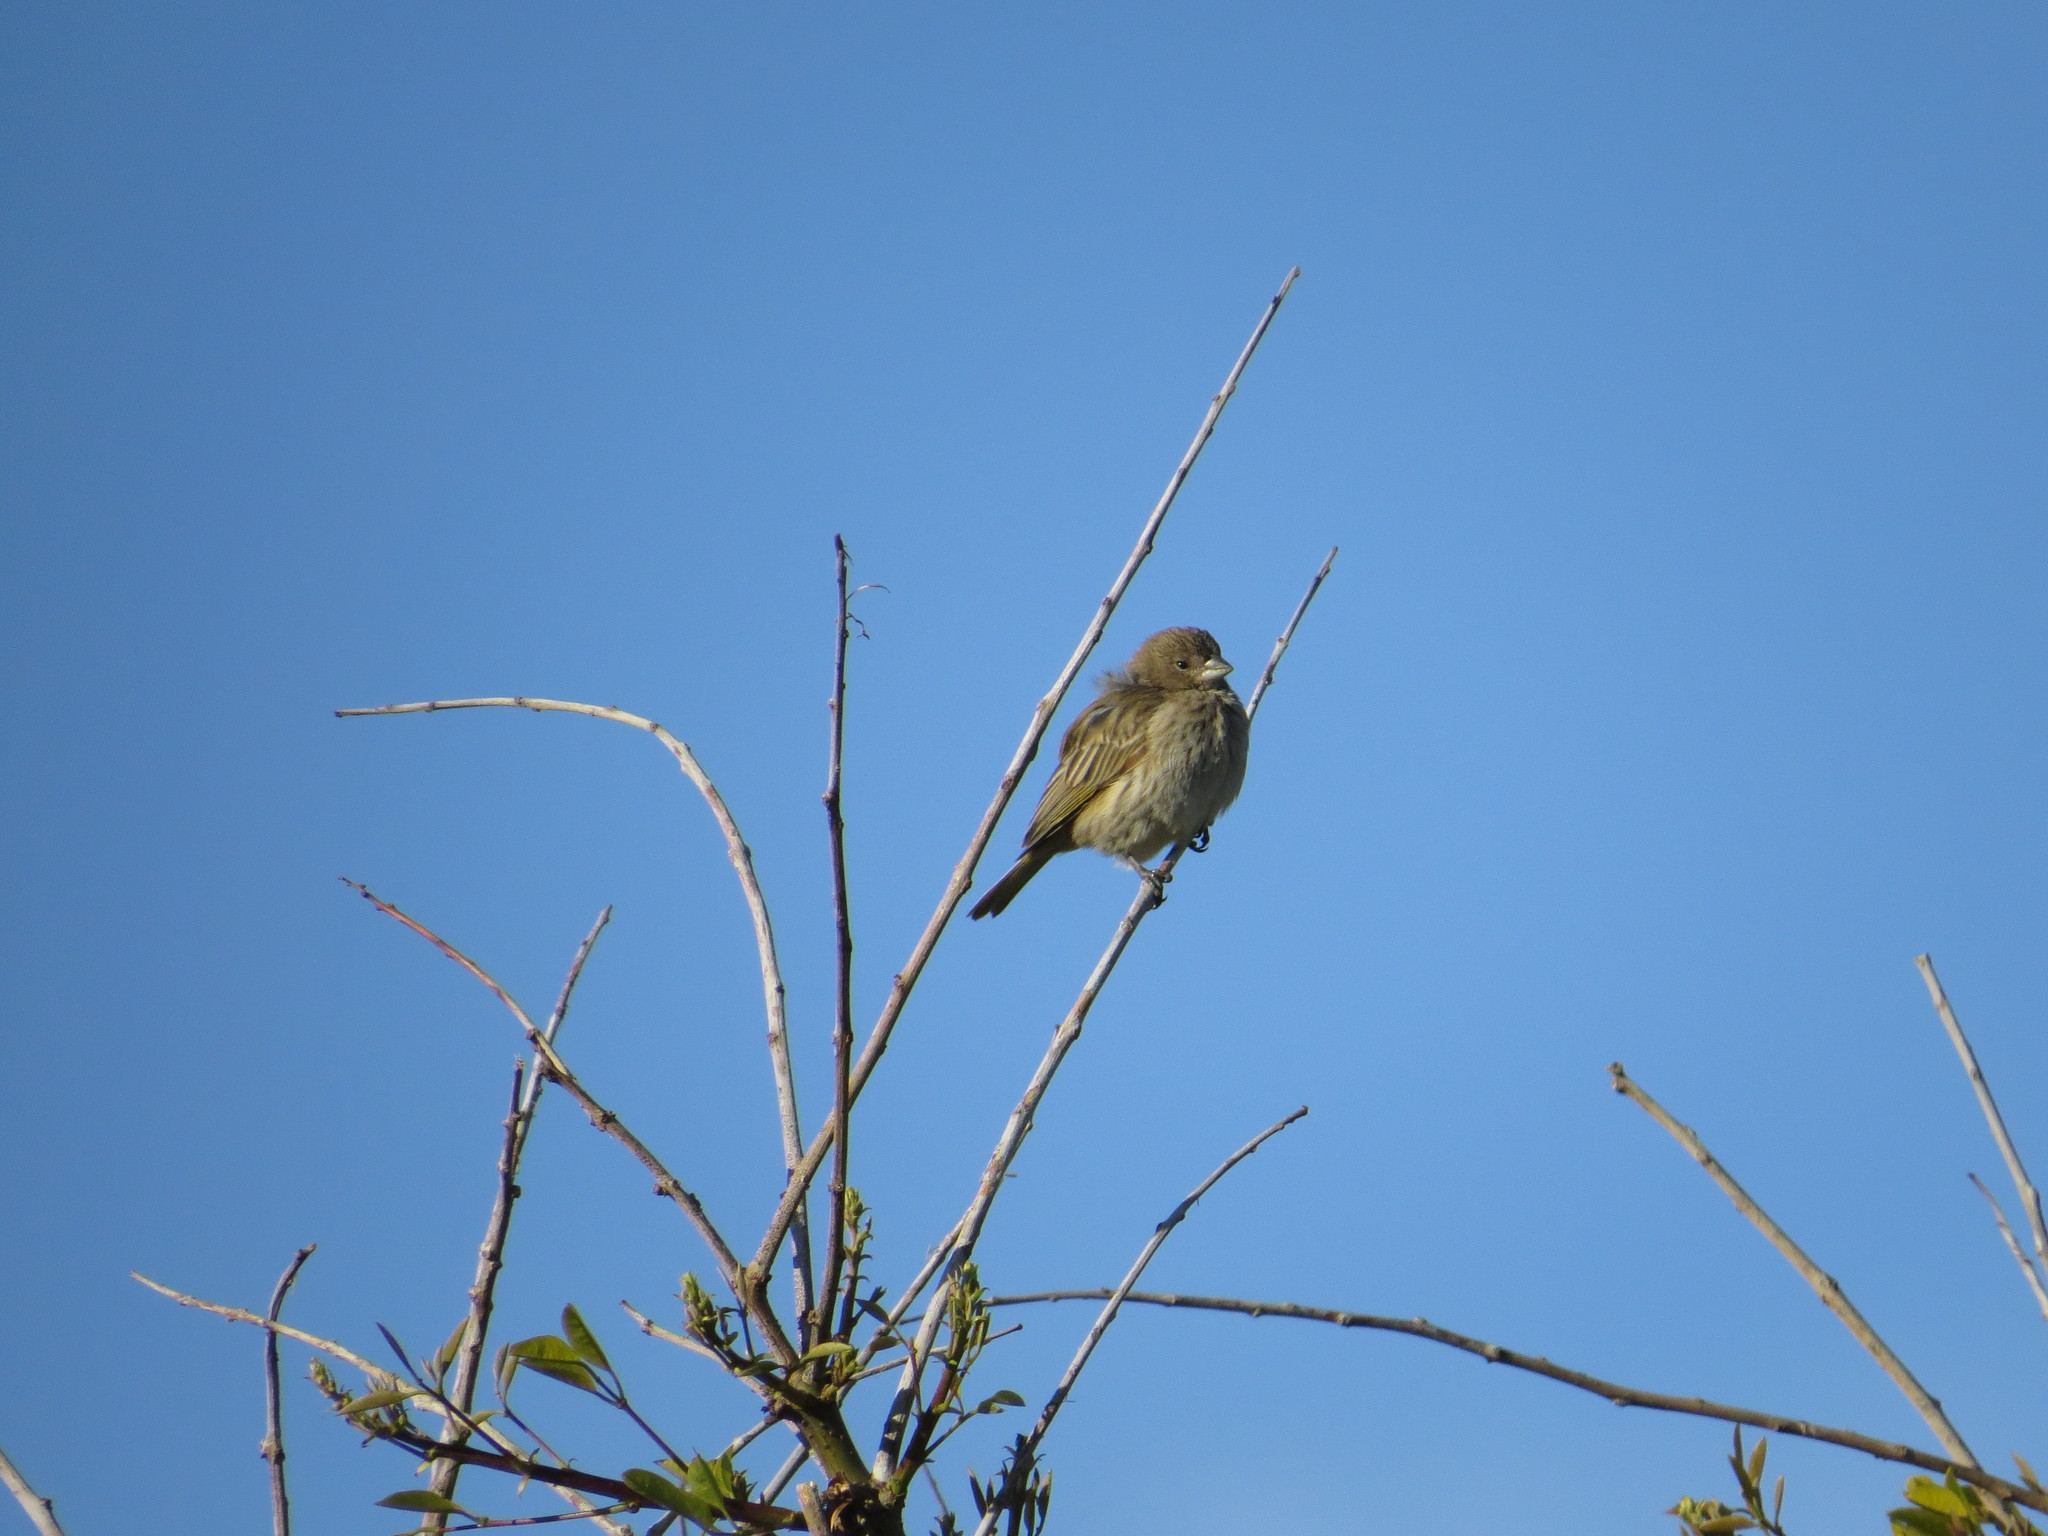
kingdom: Animalia
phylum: Chordata
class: Aves
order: Passeriformes
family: Thraupidae
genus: Sicalis
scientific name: Sicalis flaveola
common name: Saffron finch
